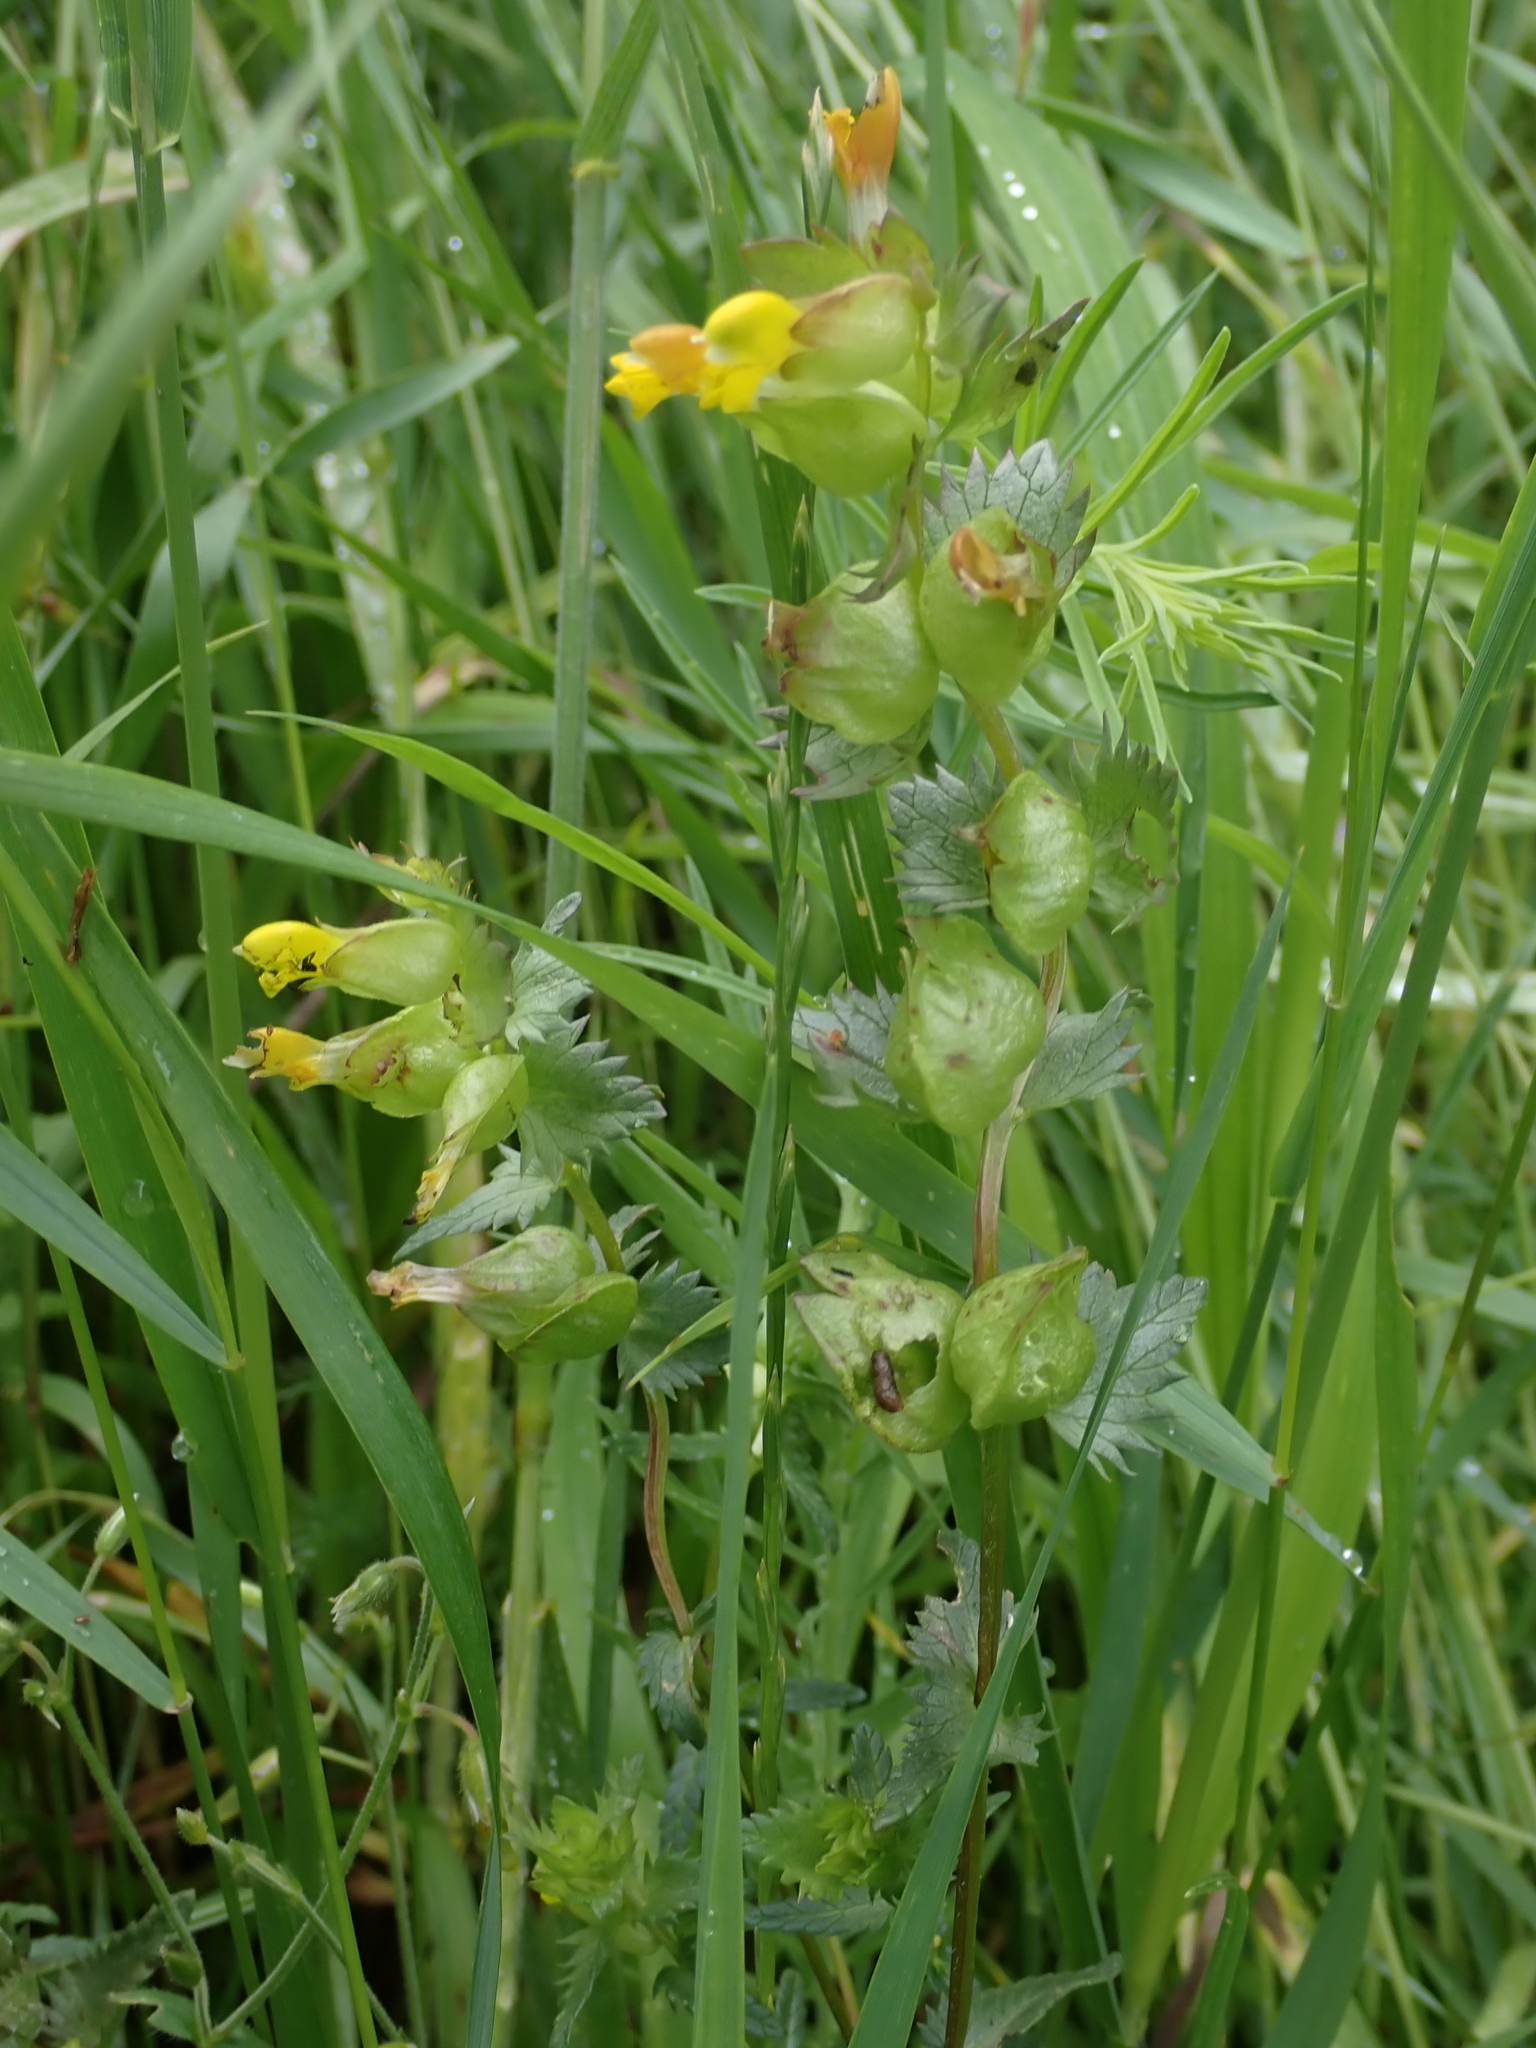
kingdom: Plantae
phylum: Tracheophyta
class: Magnoliopsida
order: Lamiales
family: Orobanchaceae
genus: Rhinanthus
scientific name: Rhinanthus minor
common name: Yellow-rattle
